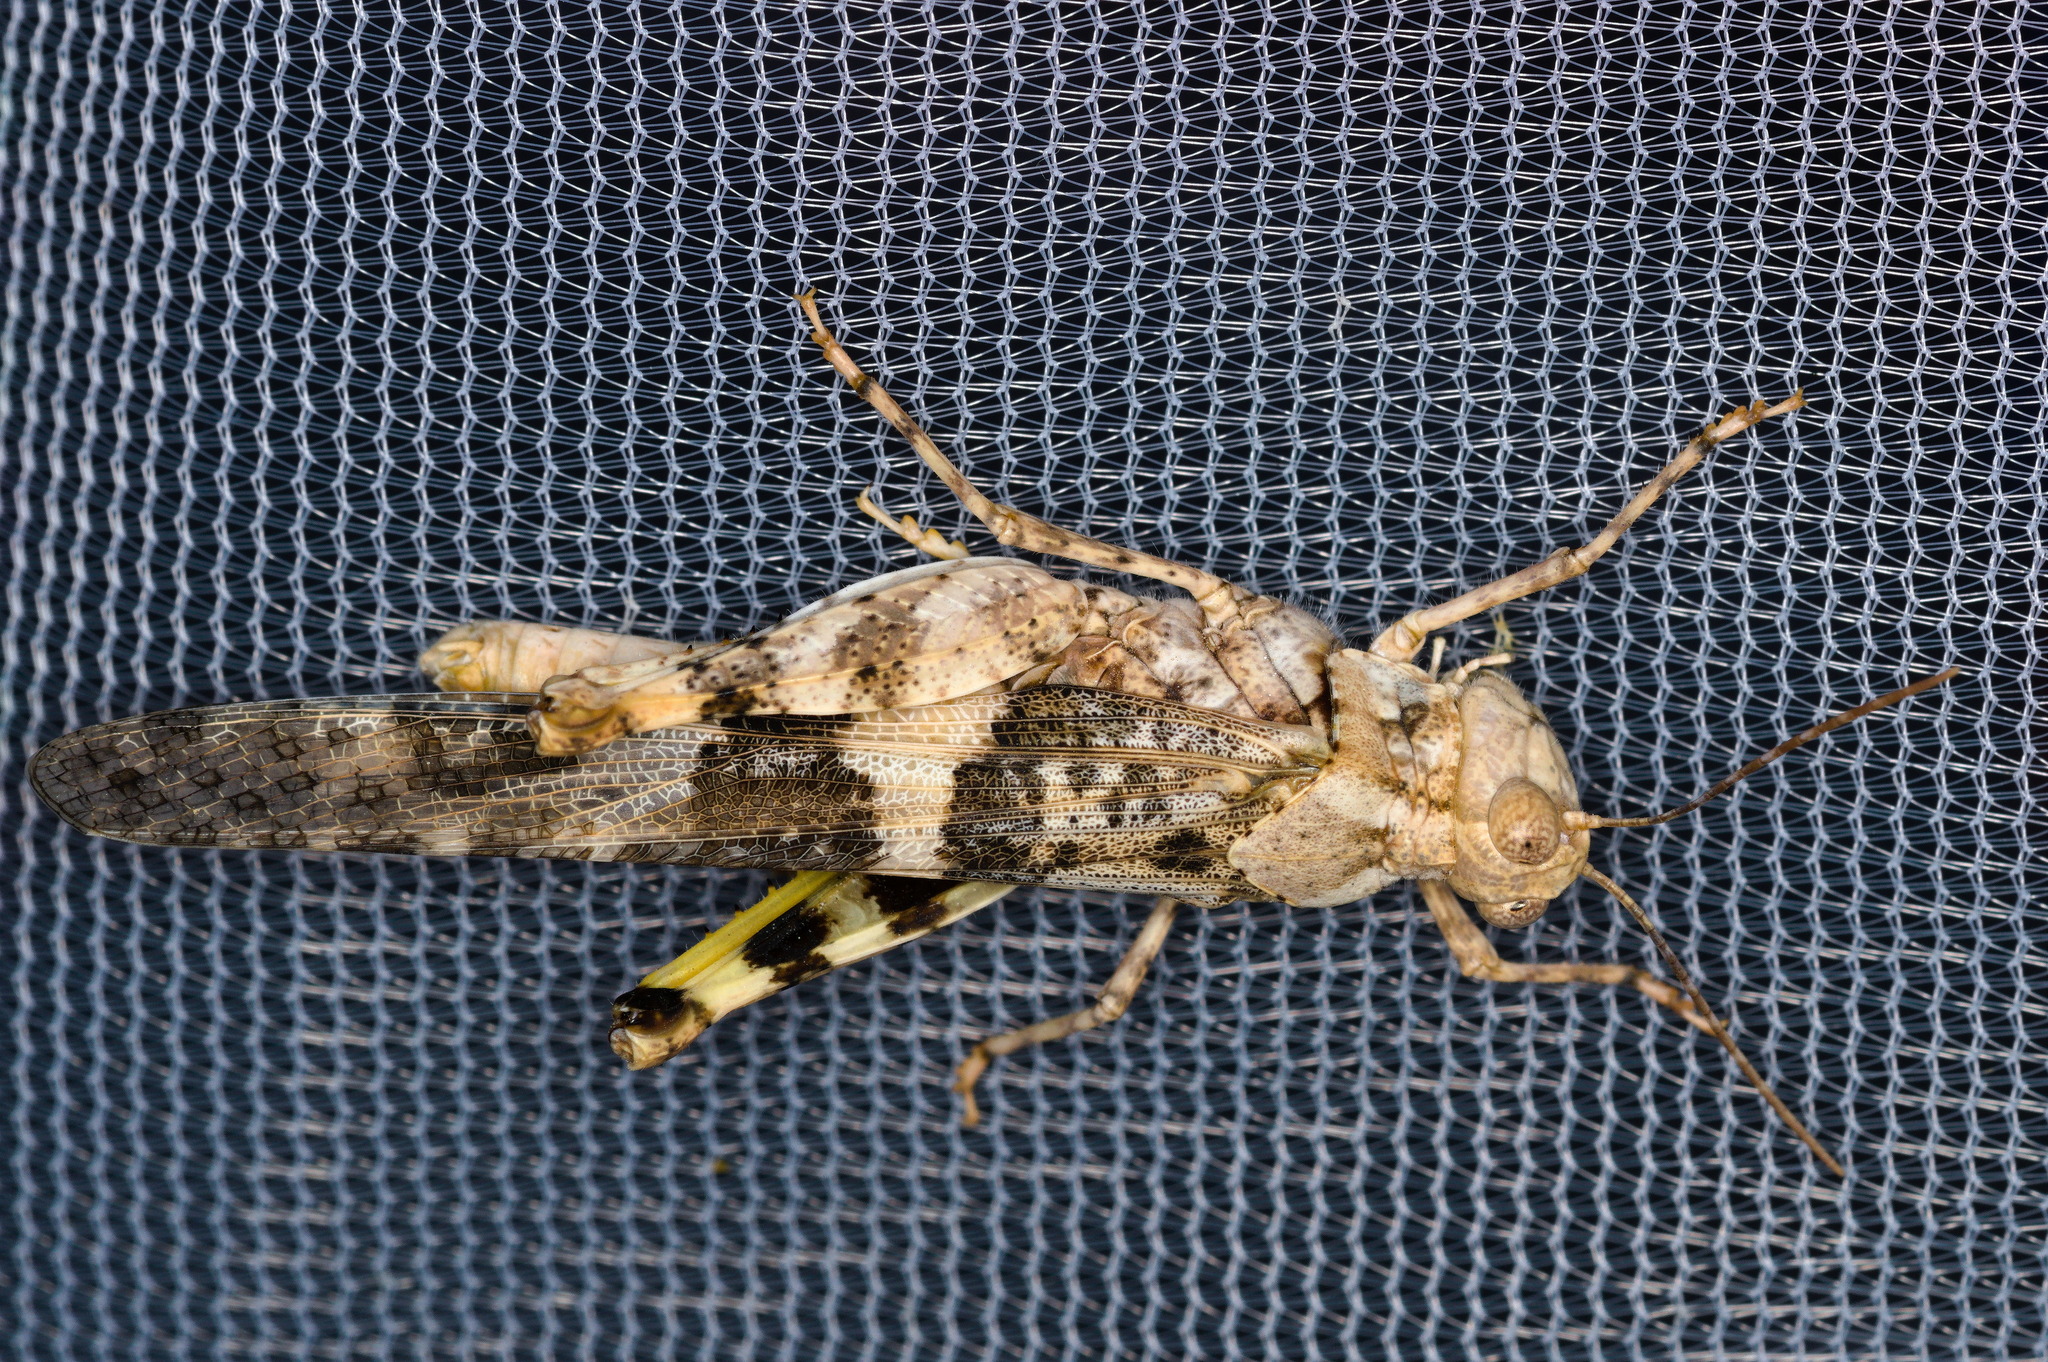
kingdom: Animalia
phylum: Arthropoda
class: Insecta
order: Orthoptera
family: Acrididae
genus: Trimerotropis
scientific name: Trimerotropis pallidipennis
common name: Pallid-winged grasshopper
